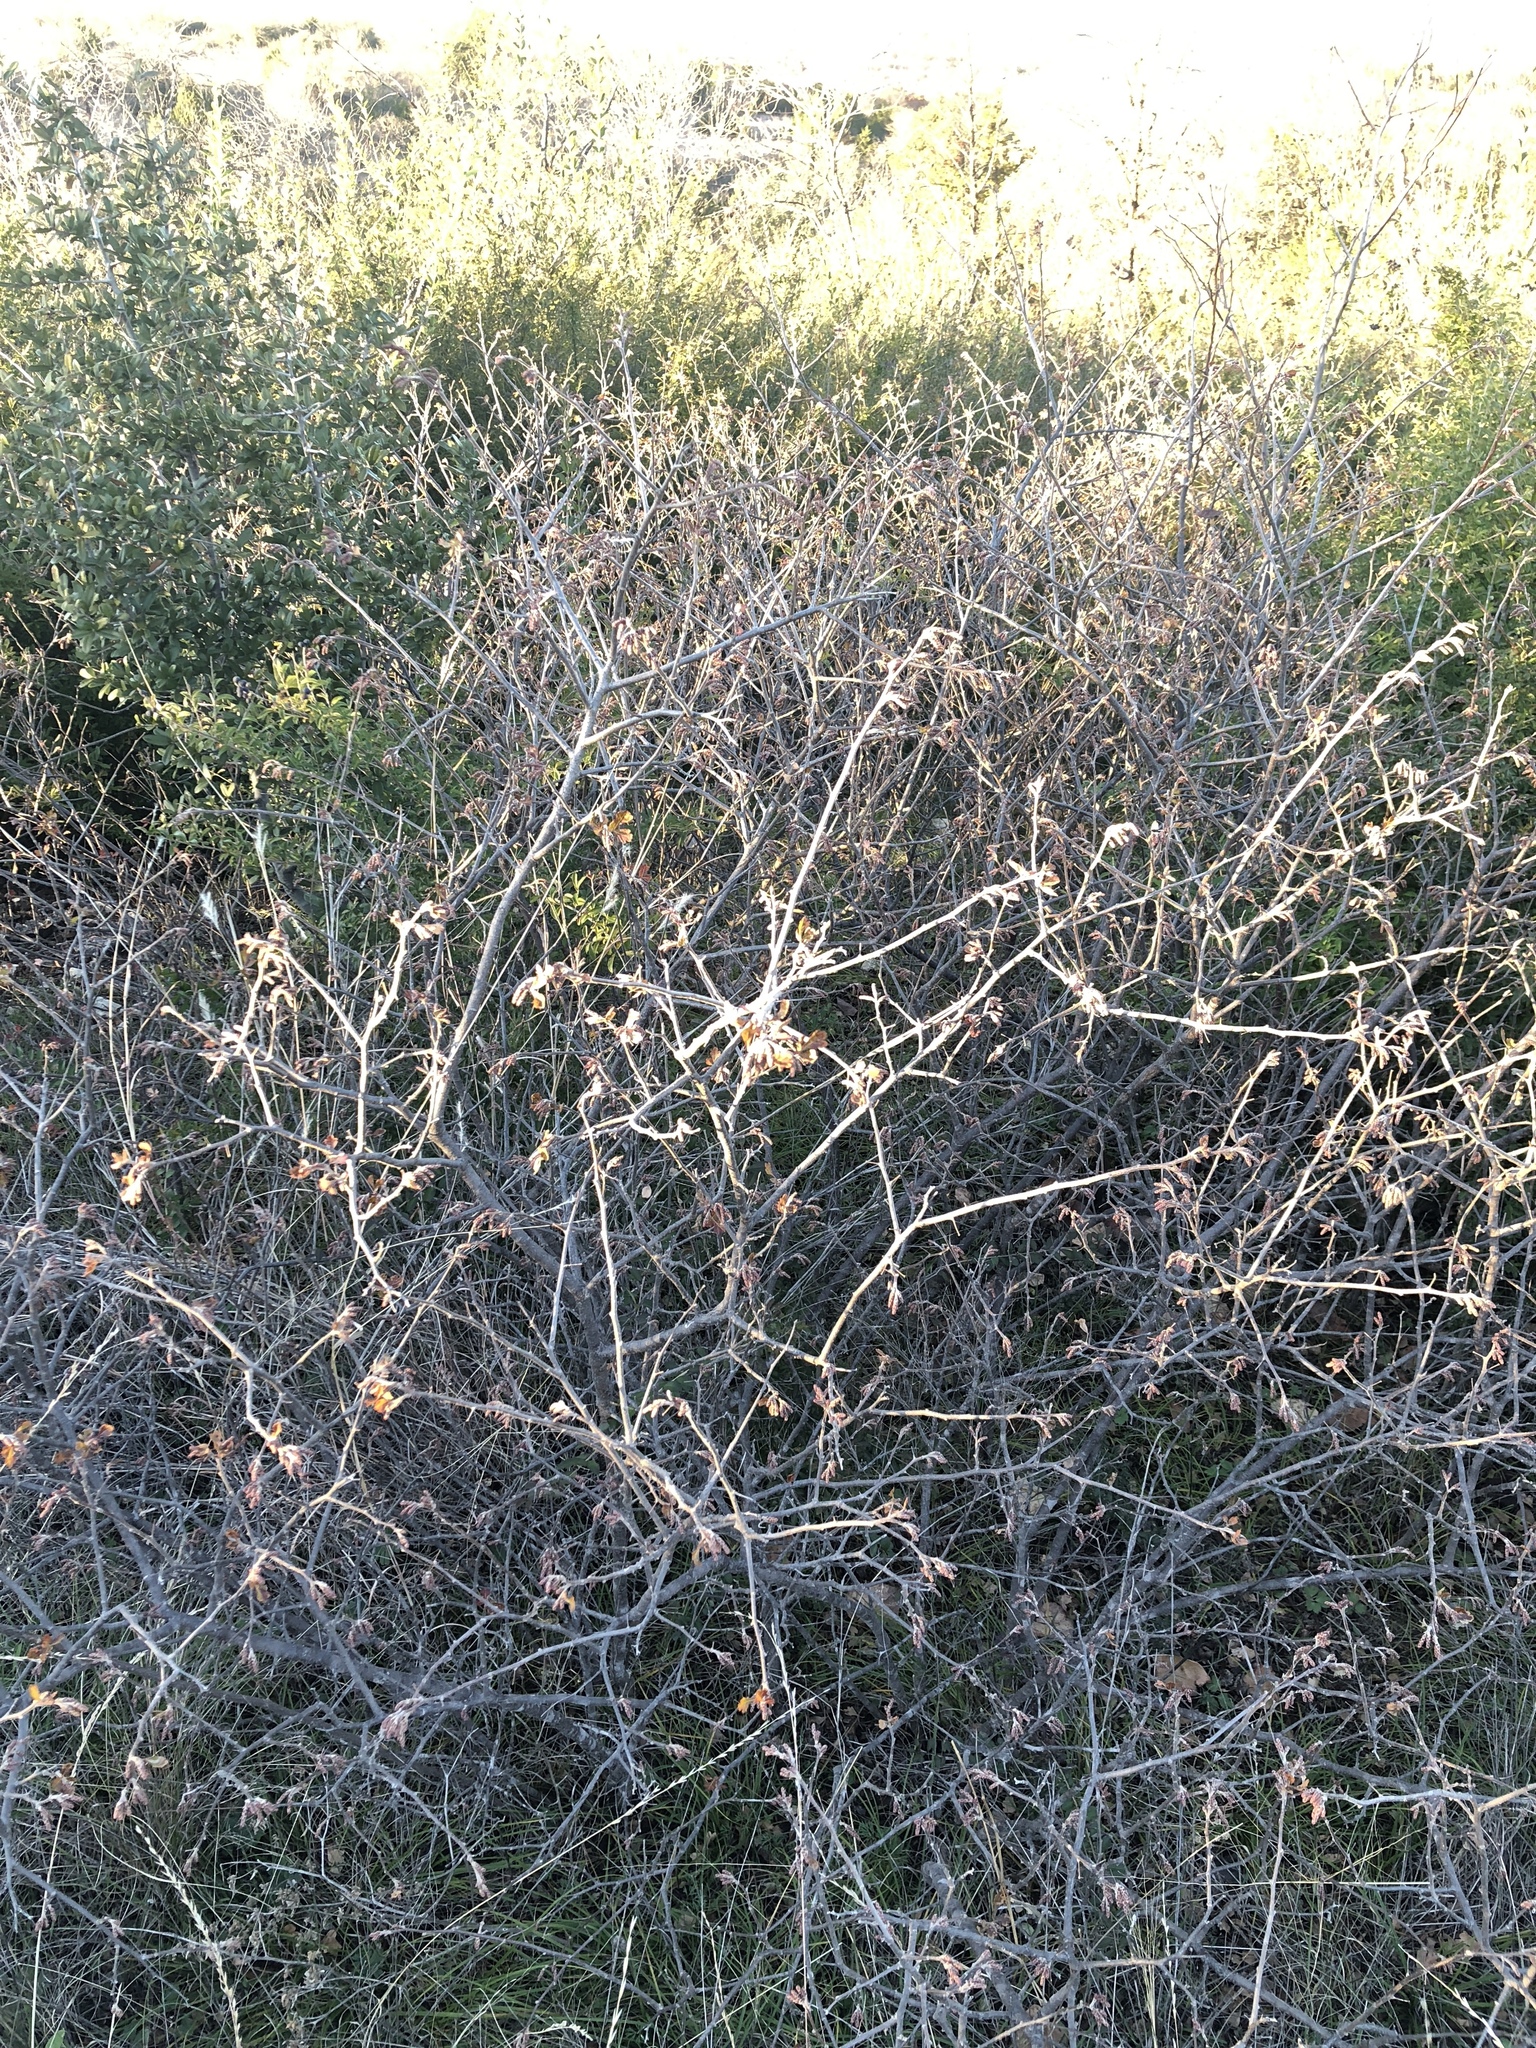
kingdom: Plantae
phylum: Tracheophyta
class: Magnoliopsida
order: Sapindales
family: Anacardiaceae
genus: Rhus
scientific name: Rhus aromatica
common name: Aromatic sumac
